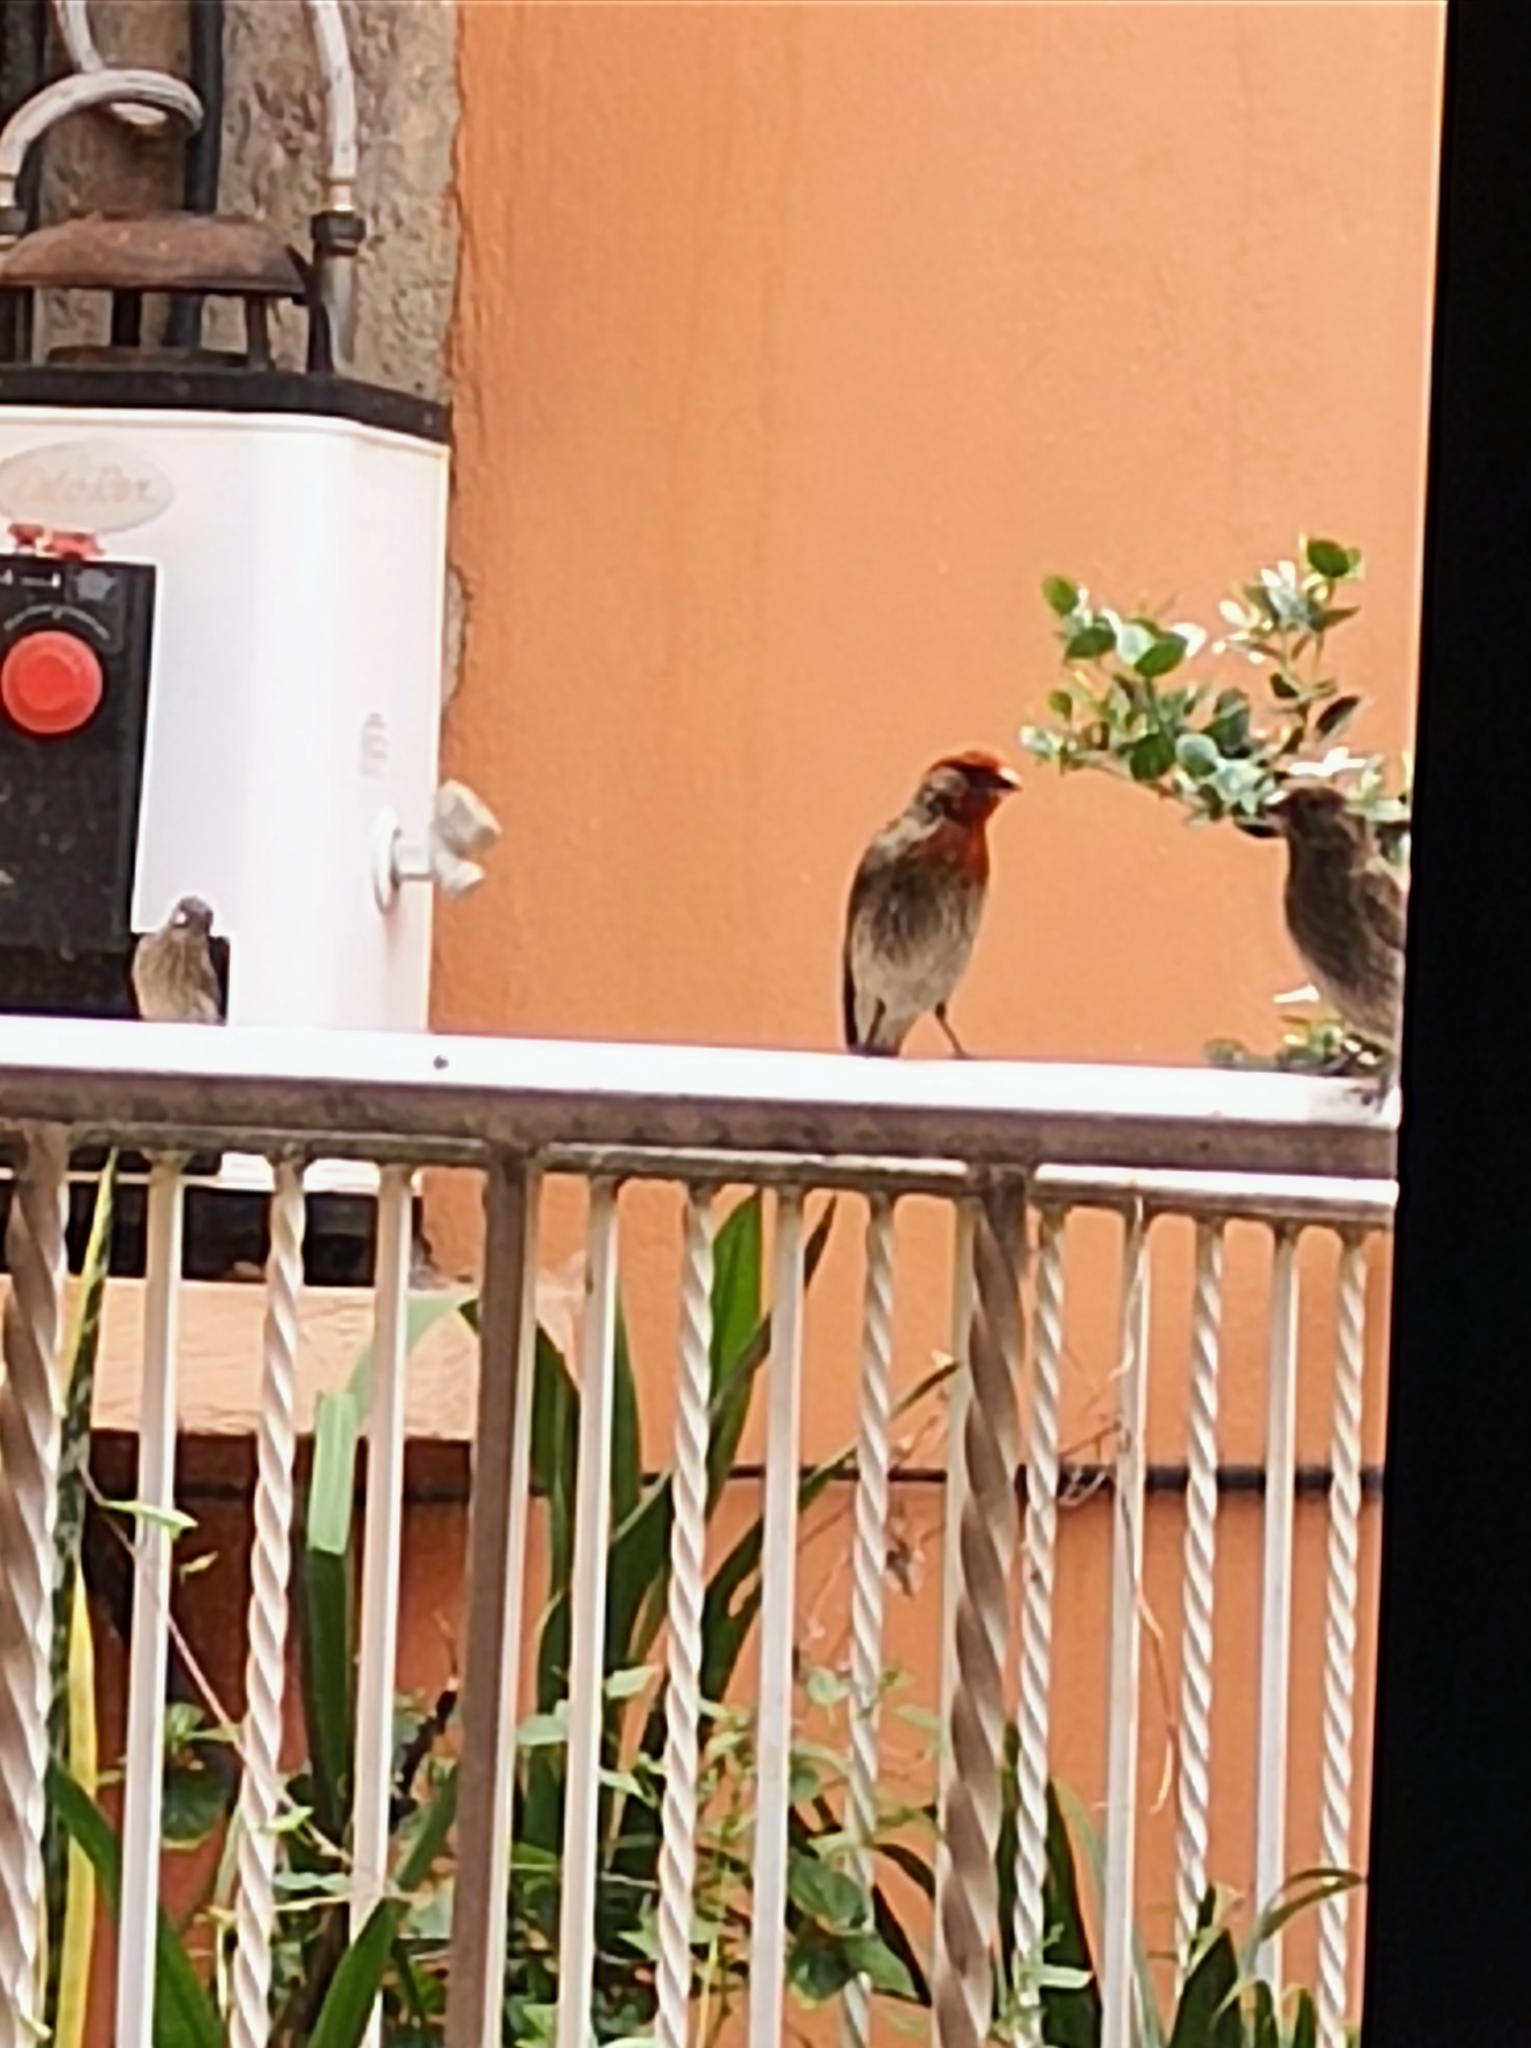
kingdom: Animalia
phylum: Chordata
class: Aves
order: Passeriformes
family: Fringillidae
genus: Haemorhous
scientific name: Haemorhous mexicanus
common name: House finch
